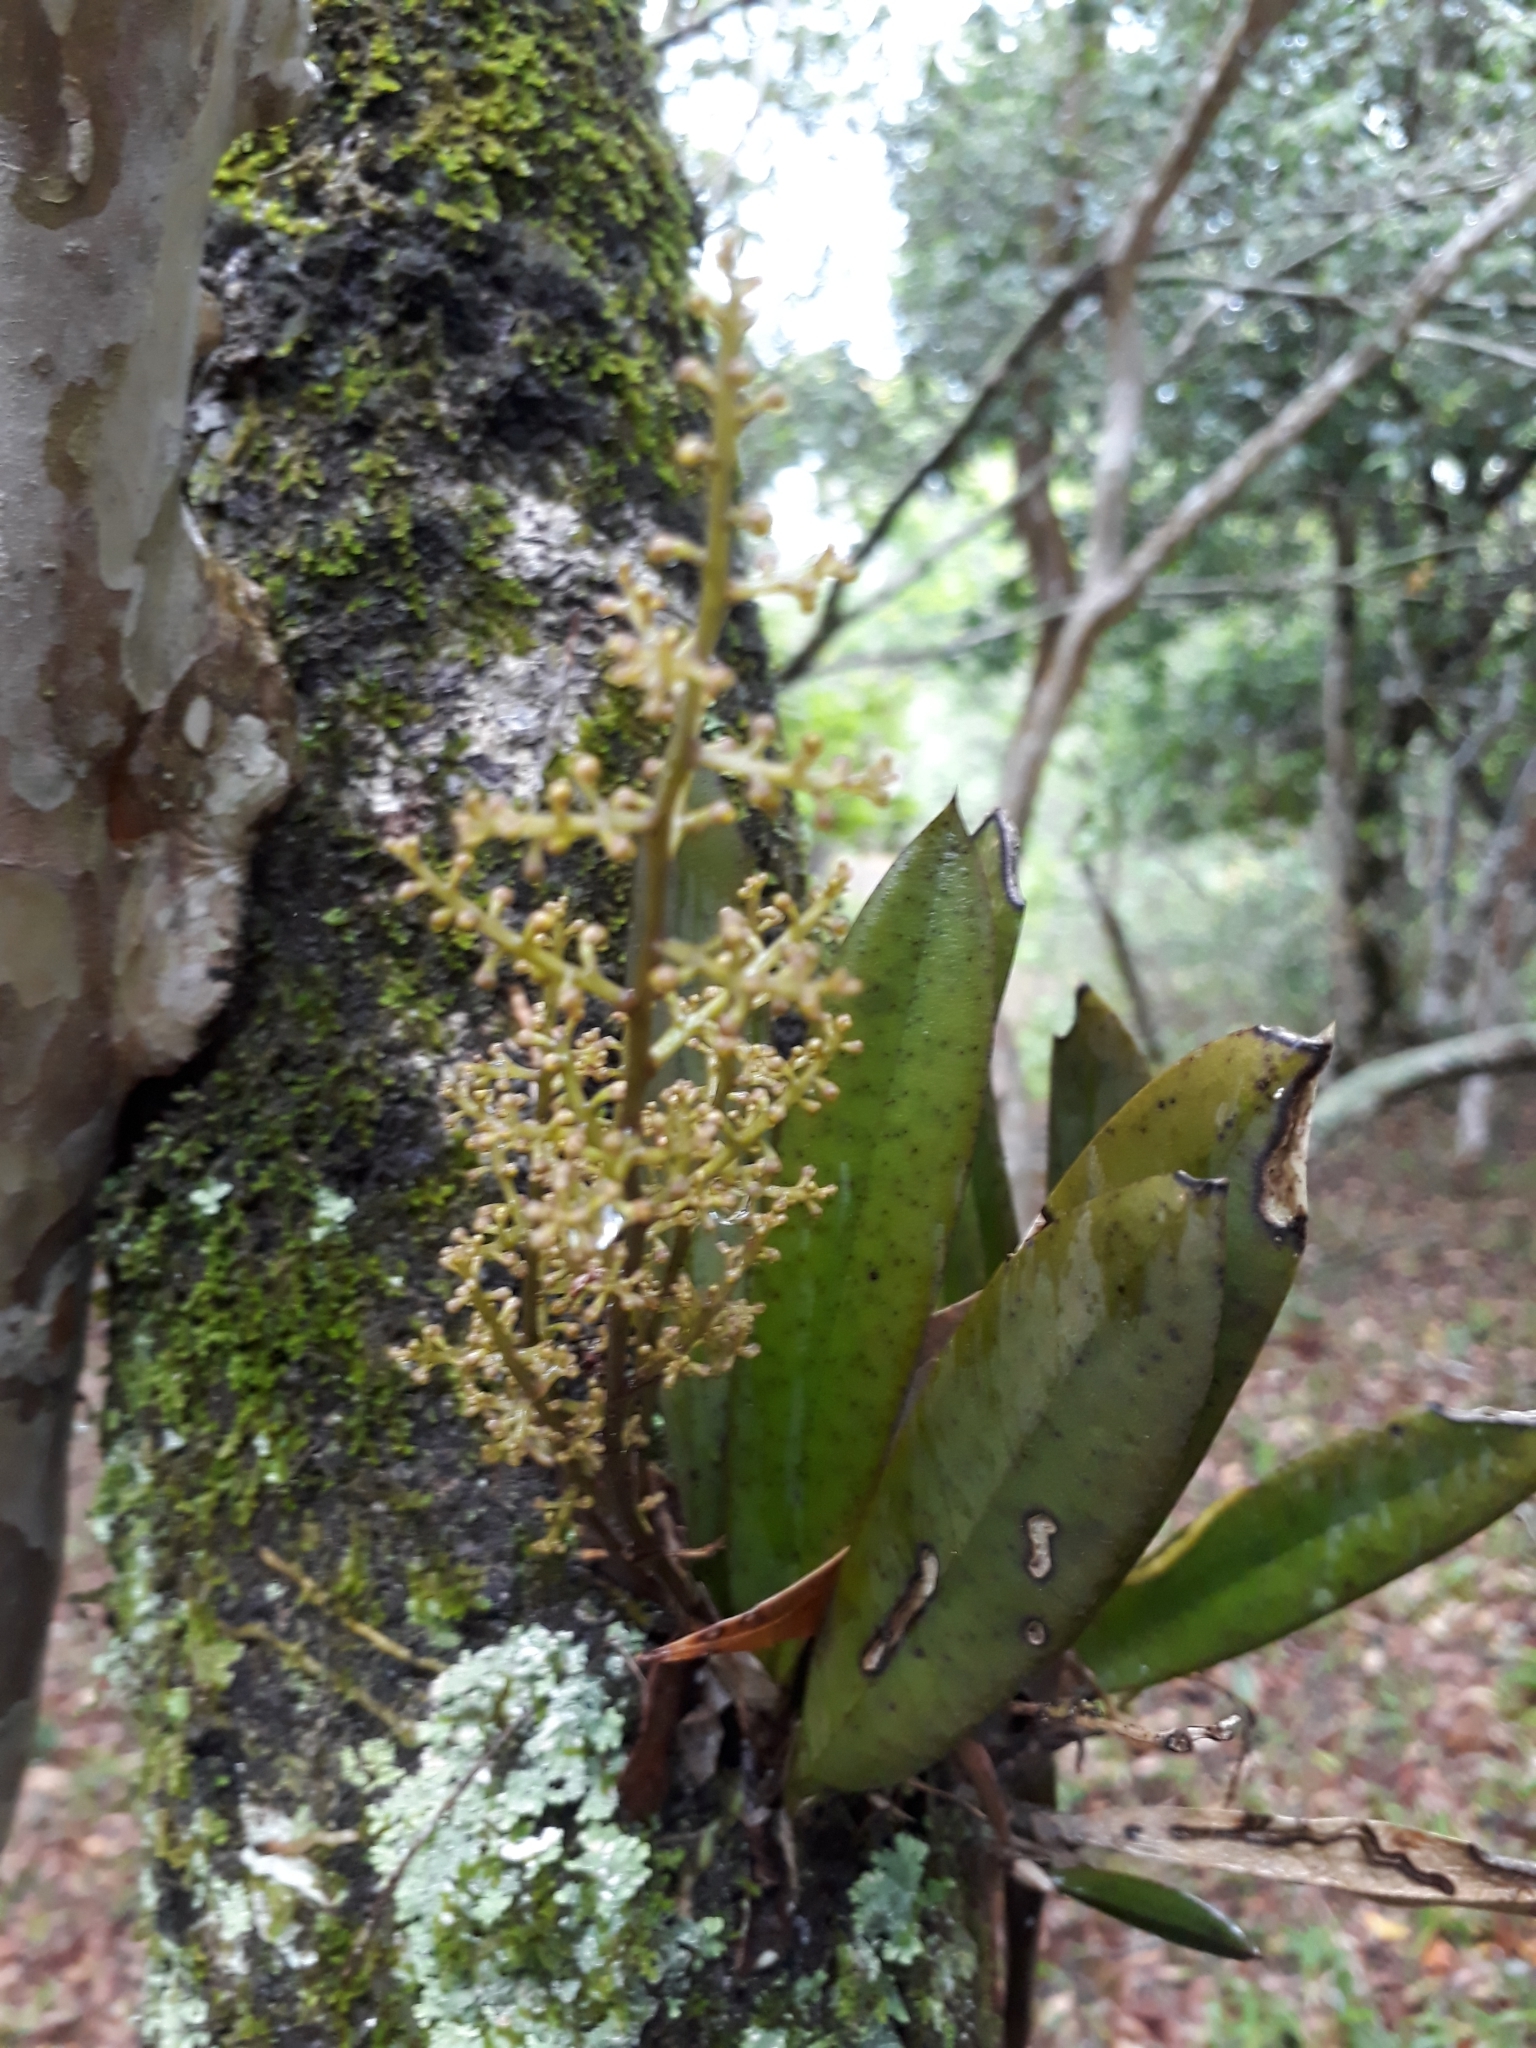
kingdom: Plantae
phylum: Tracheophyta
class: Liliopsida
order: Asparagales
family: Orchidaceae
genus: Trichocentrum
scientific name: Trichocentrum pumilum
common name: Mule-ear orchid
